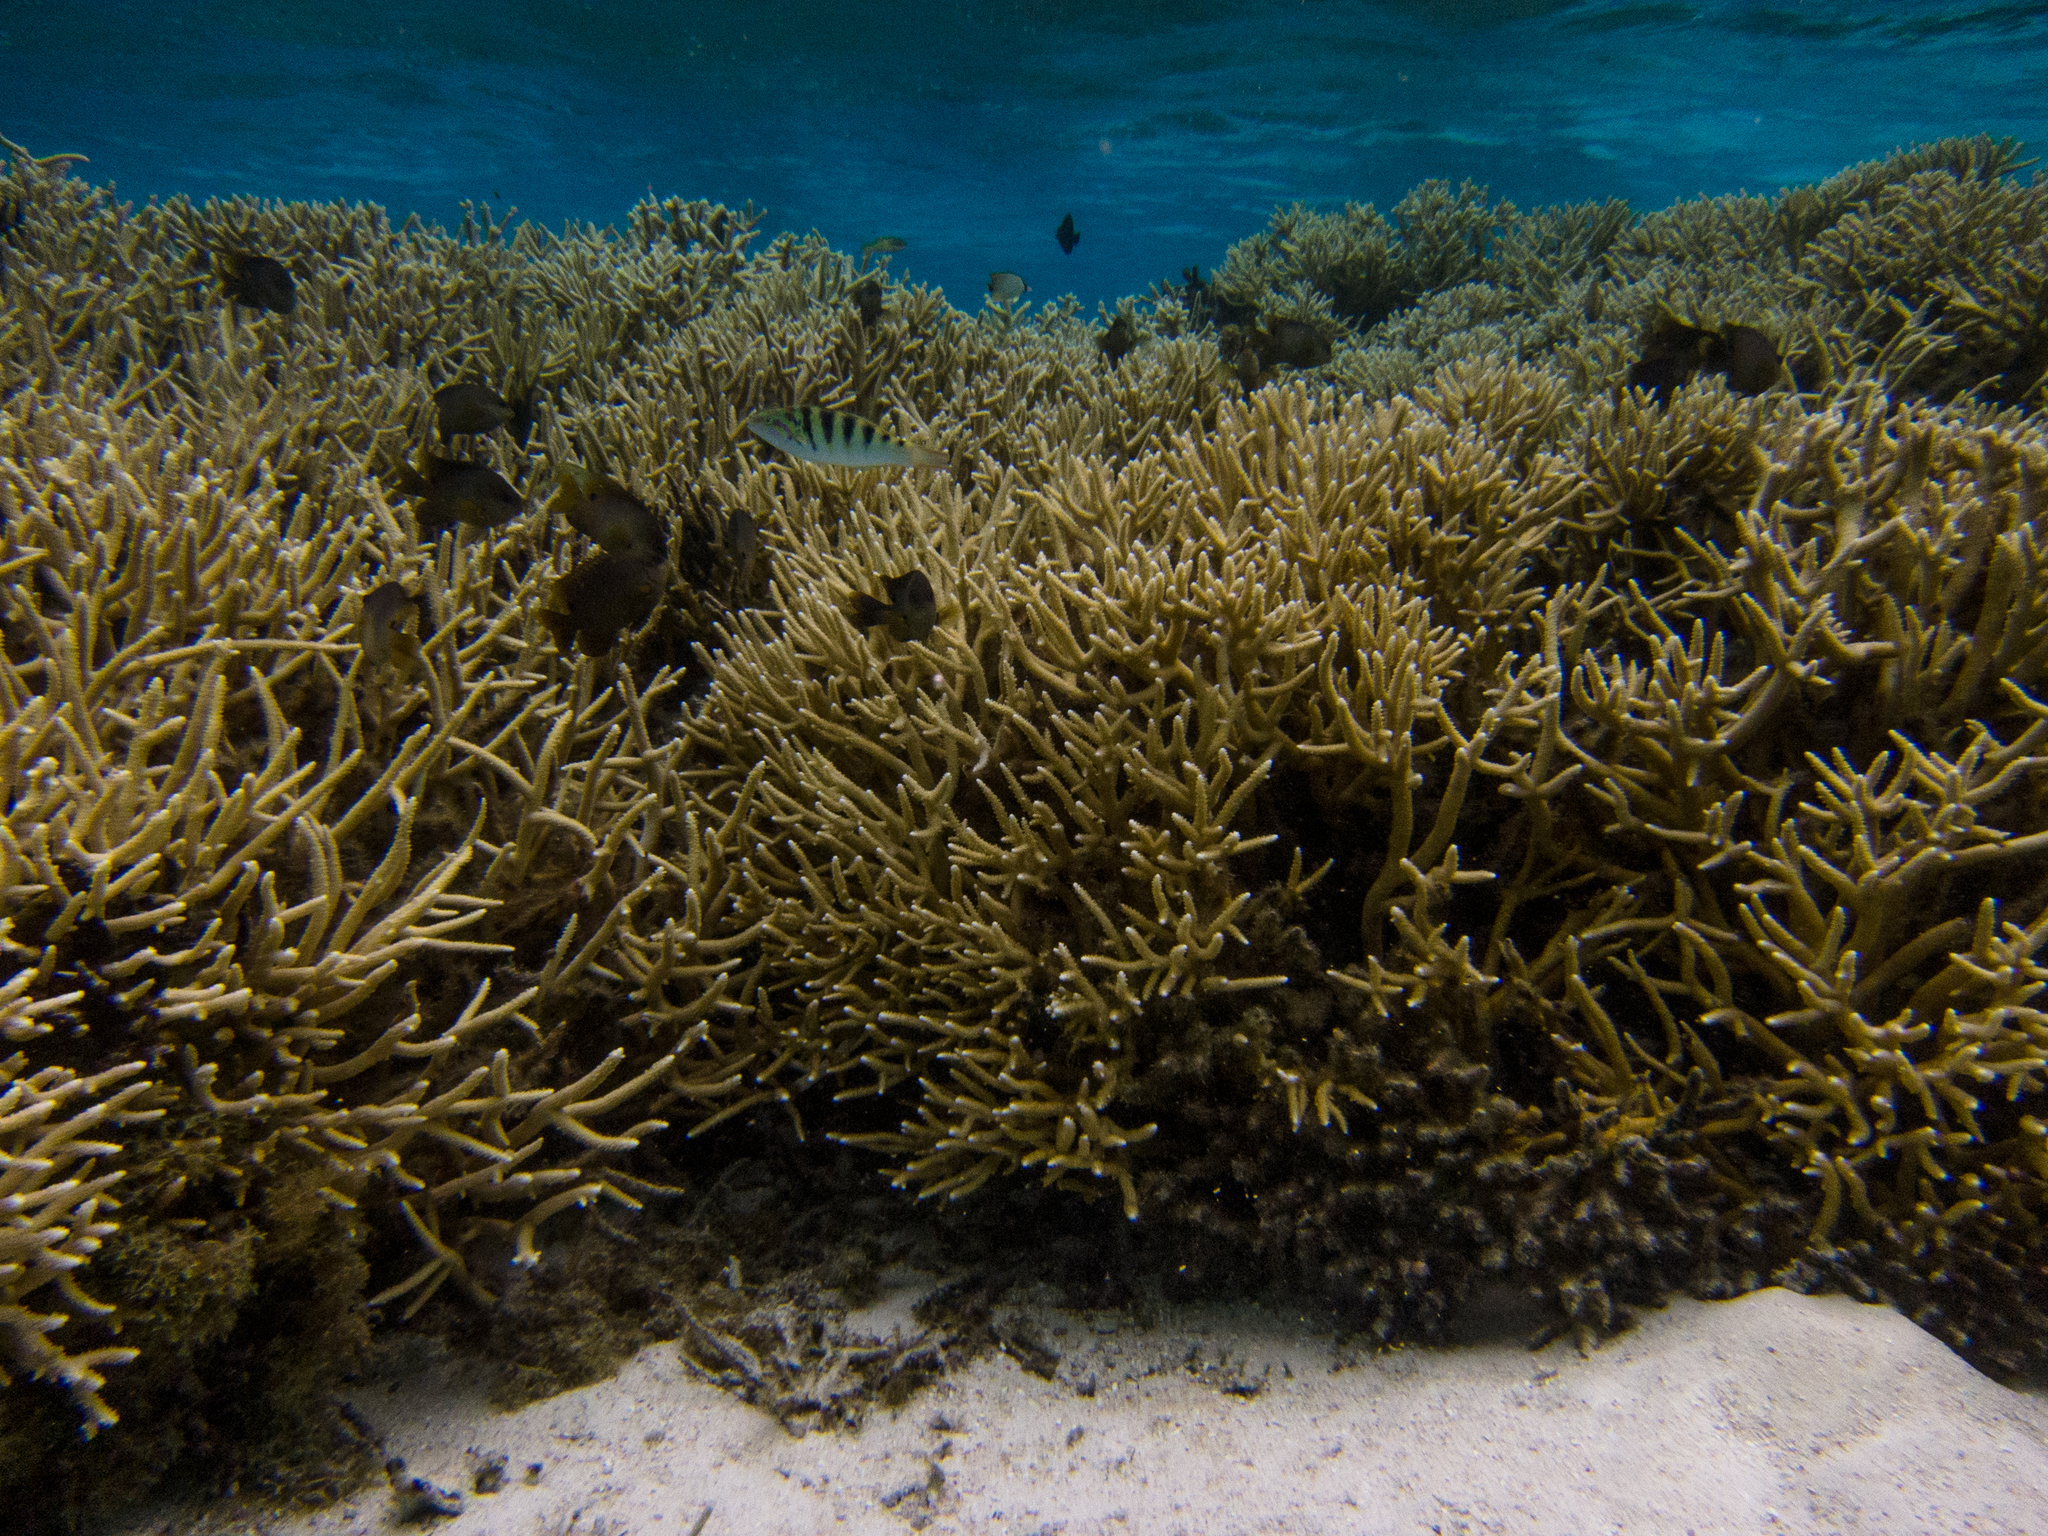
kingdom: Animalia
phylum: Chordata
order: Perciformes
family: Labridae
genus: Thalassoma
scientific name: Thalassoma hardwicke
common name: Sixbar wrasse
